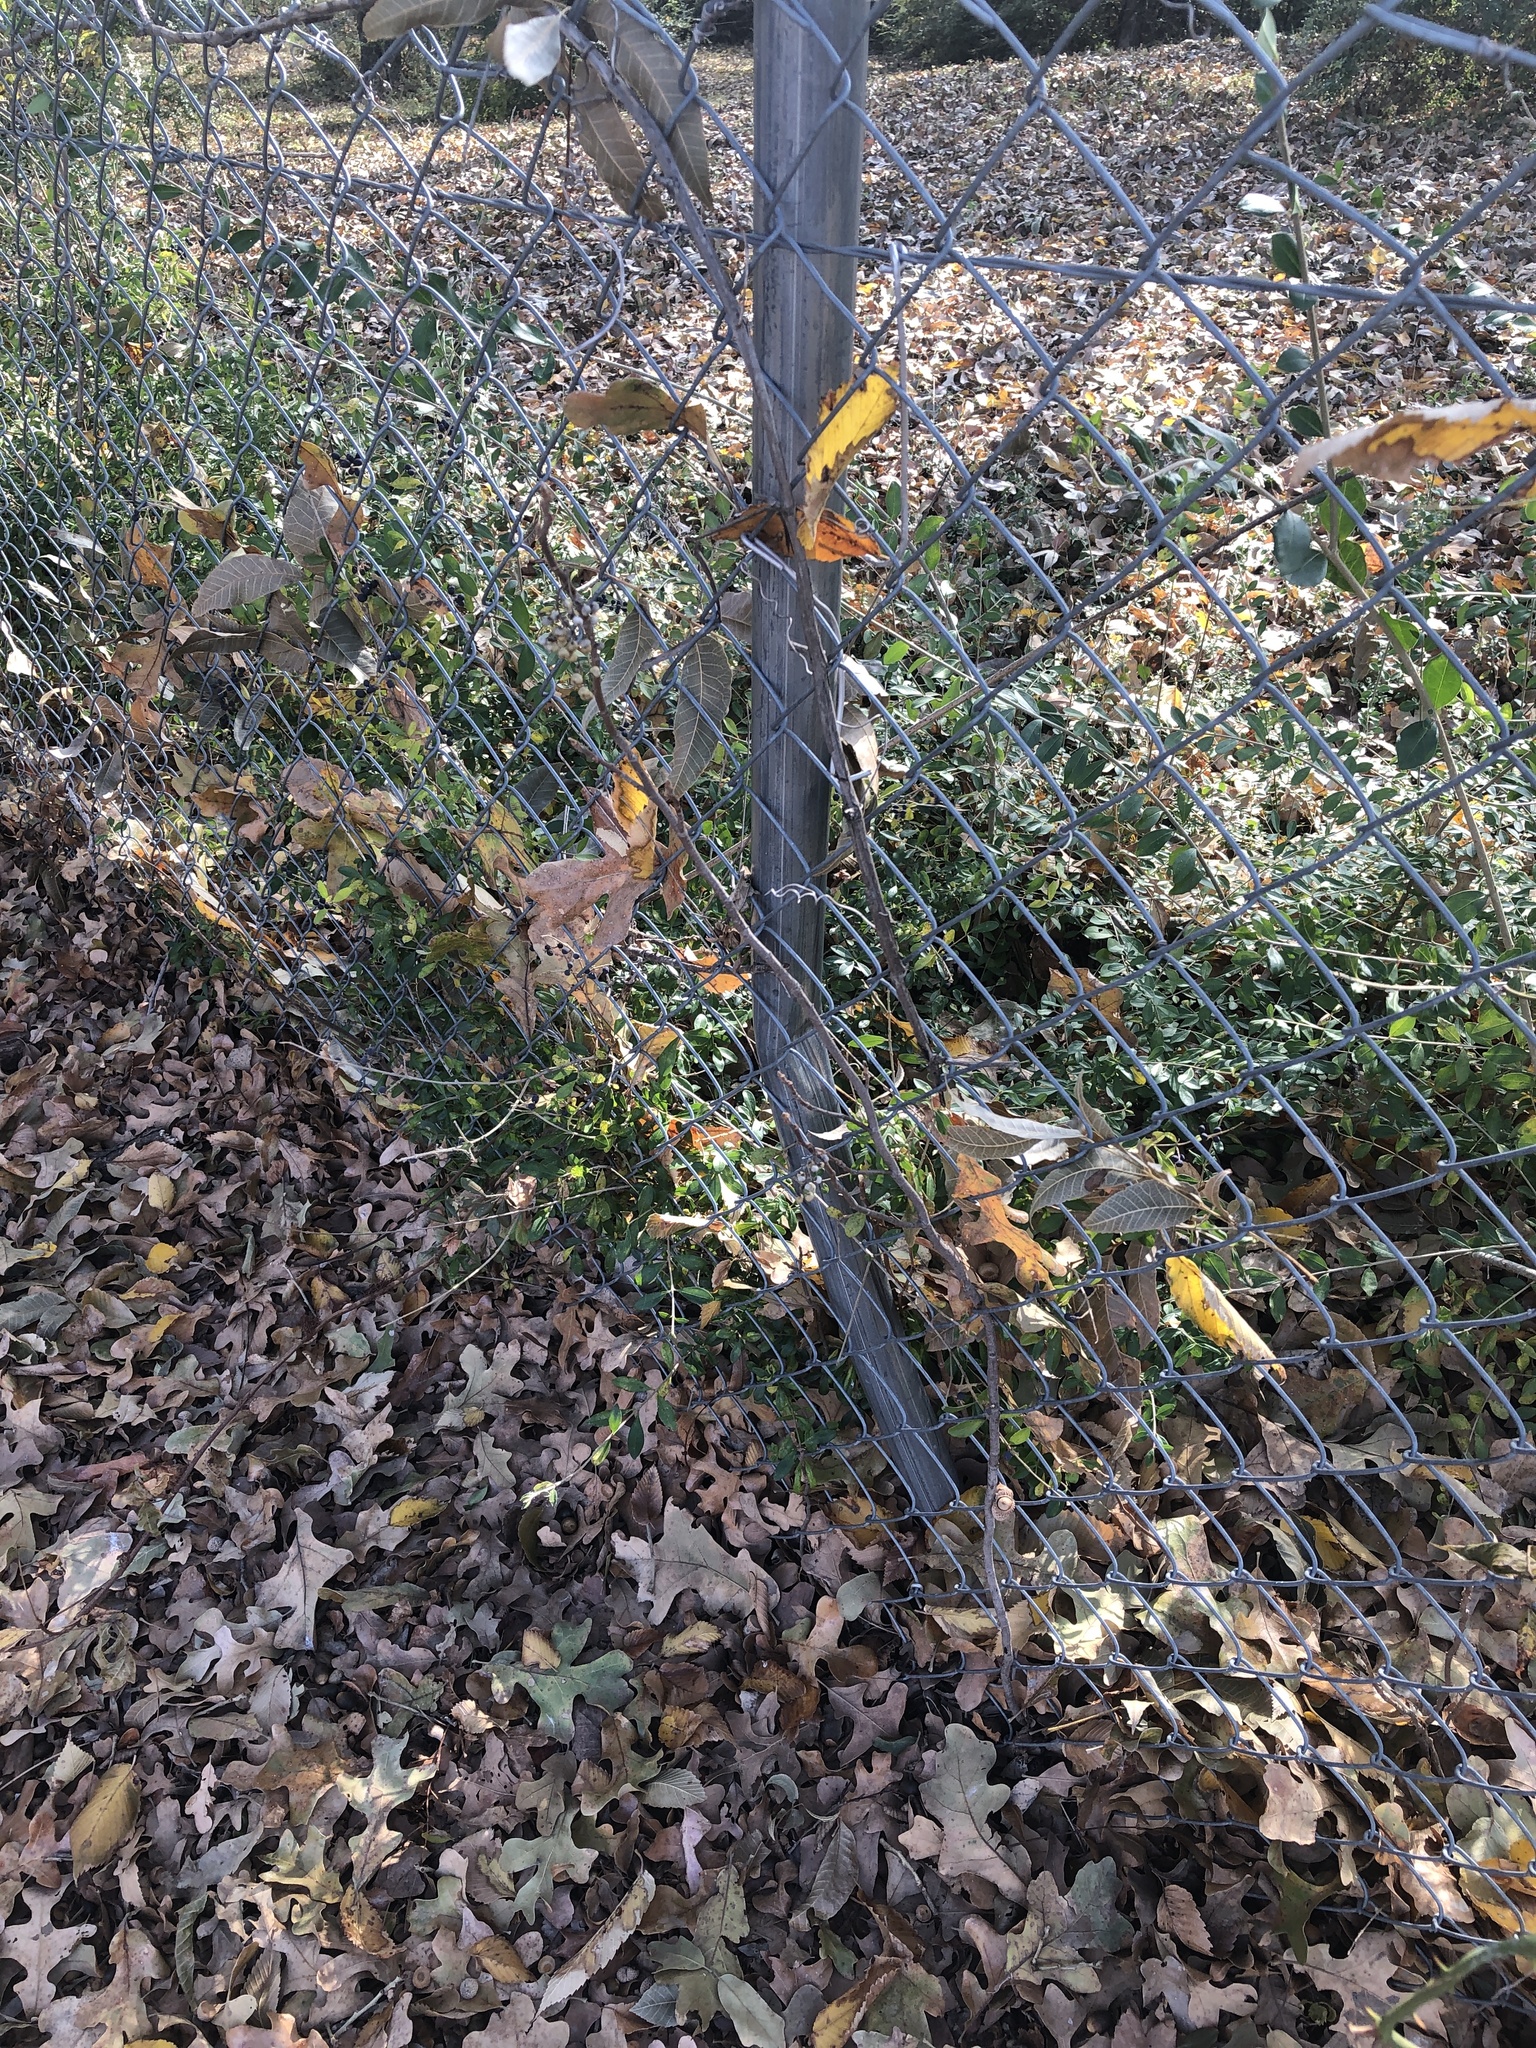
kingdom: Plantae
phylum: Tracheophyta
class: Magnoliopsida
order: Sapindales
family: Anacardiaceae
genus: Toxicodendron
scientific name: Toxicodendron radicans
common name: Poison ivy
